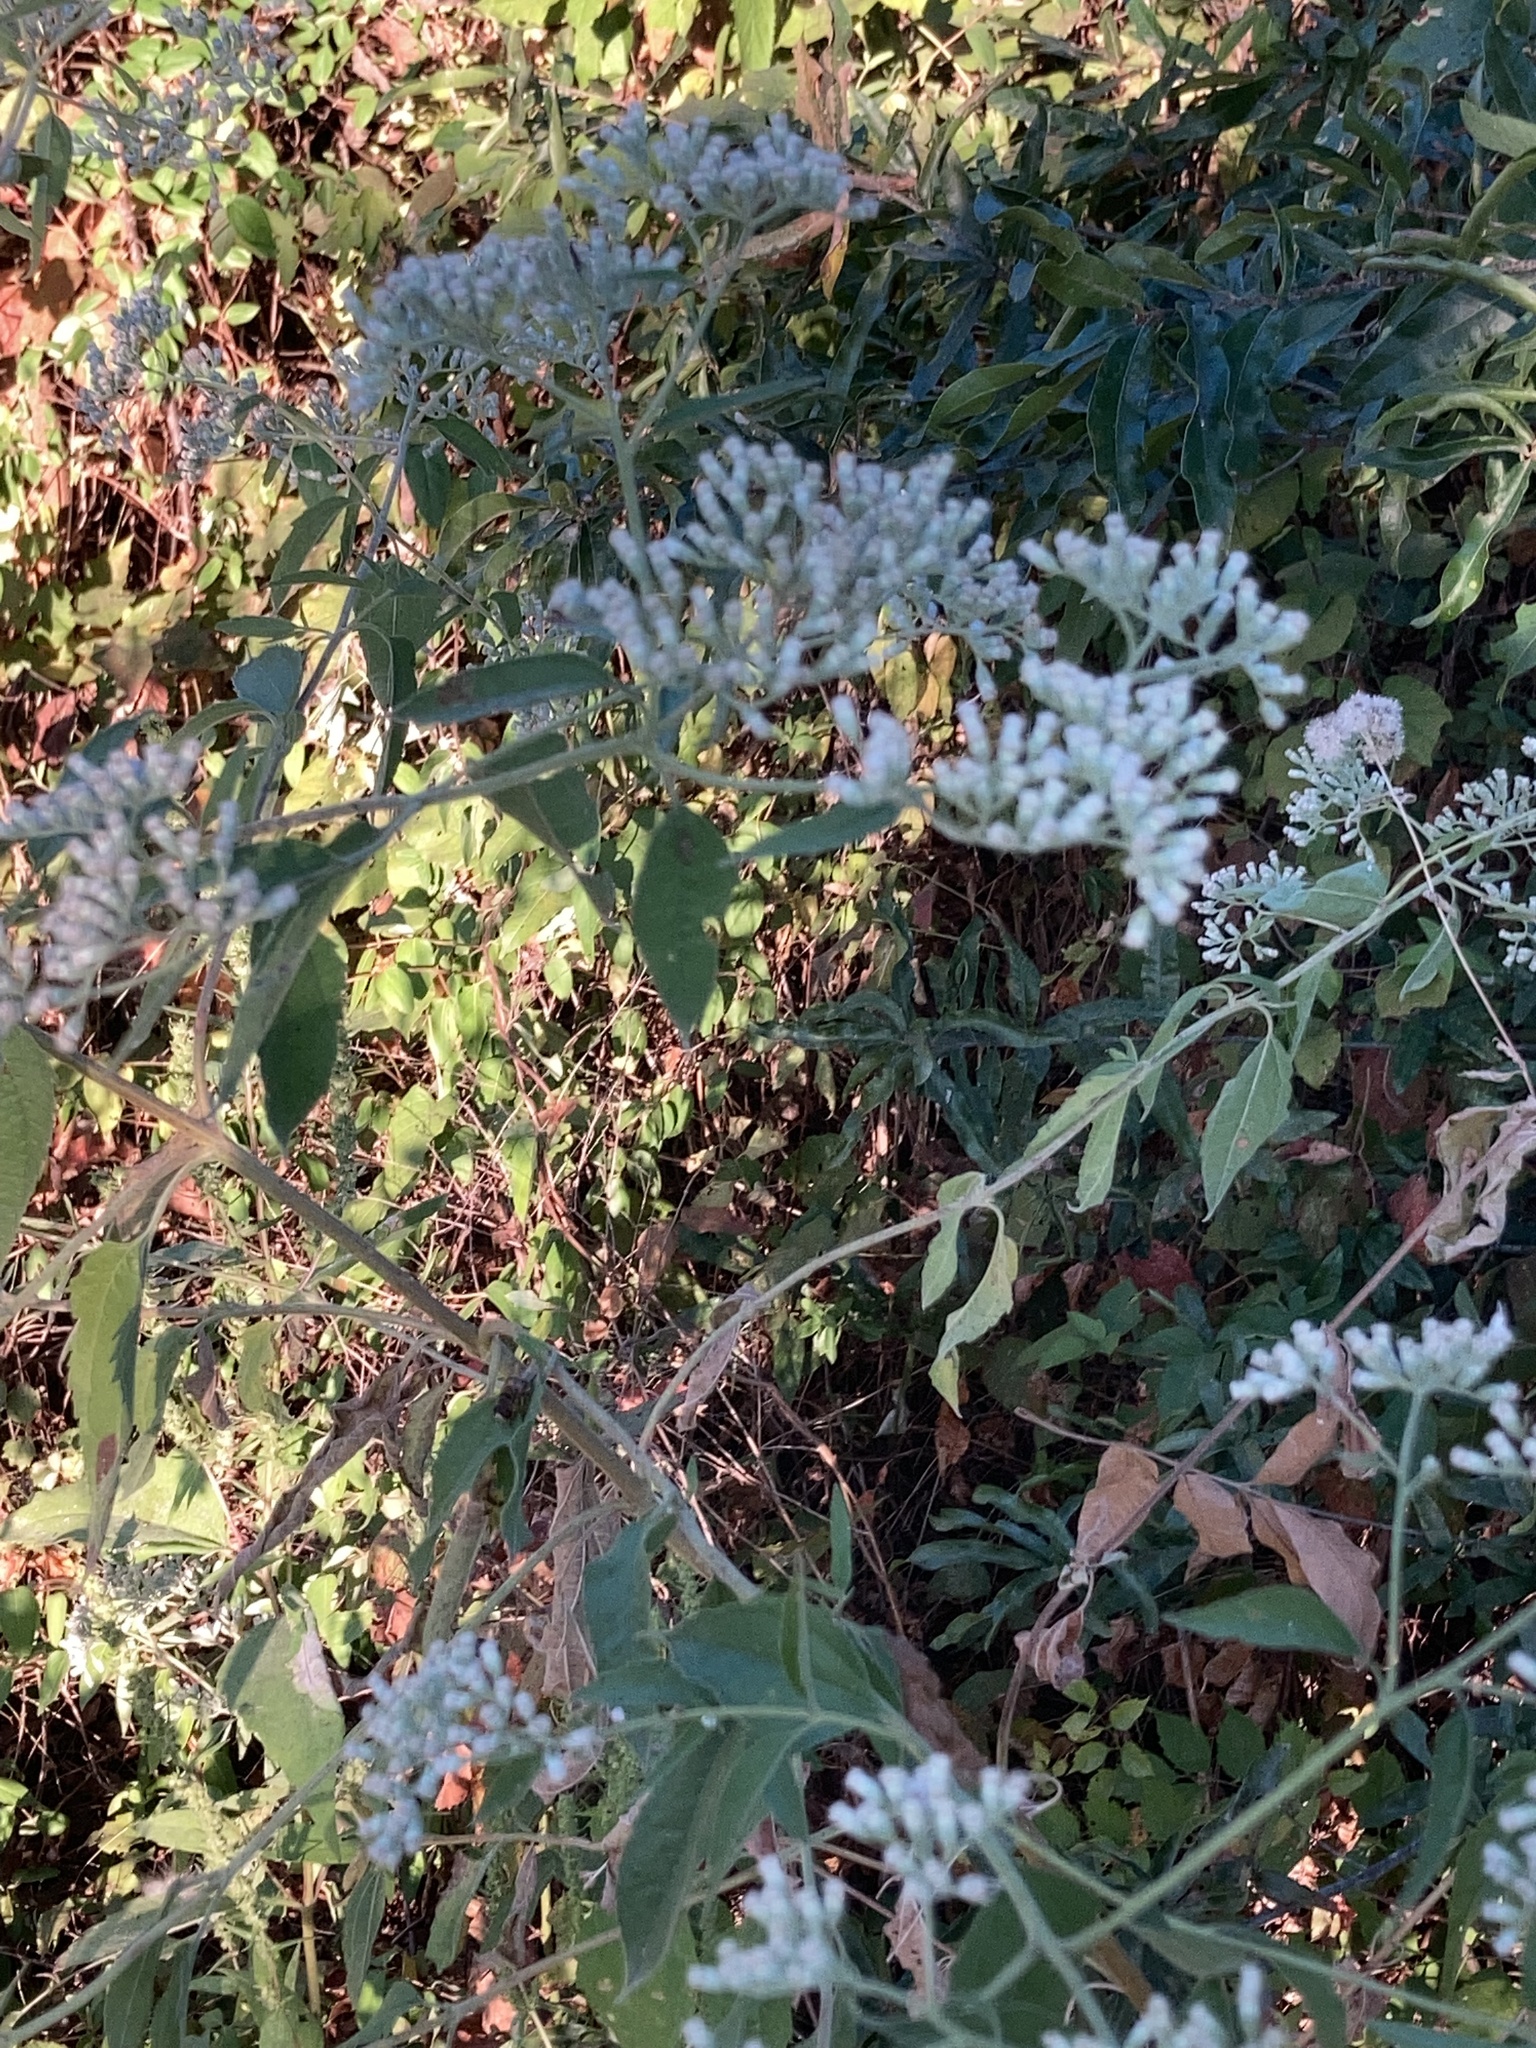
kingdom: Plantae
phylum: Tracheophyta
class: Magnoliopsida
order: Asterales
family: Asteraceae
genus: Eupatorium
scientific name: Eupatorium serotinum
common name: Late boneset
